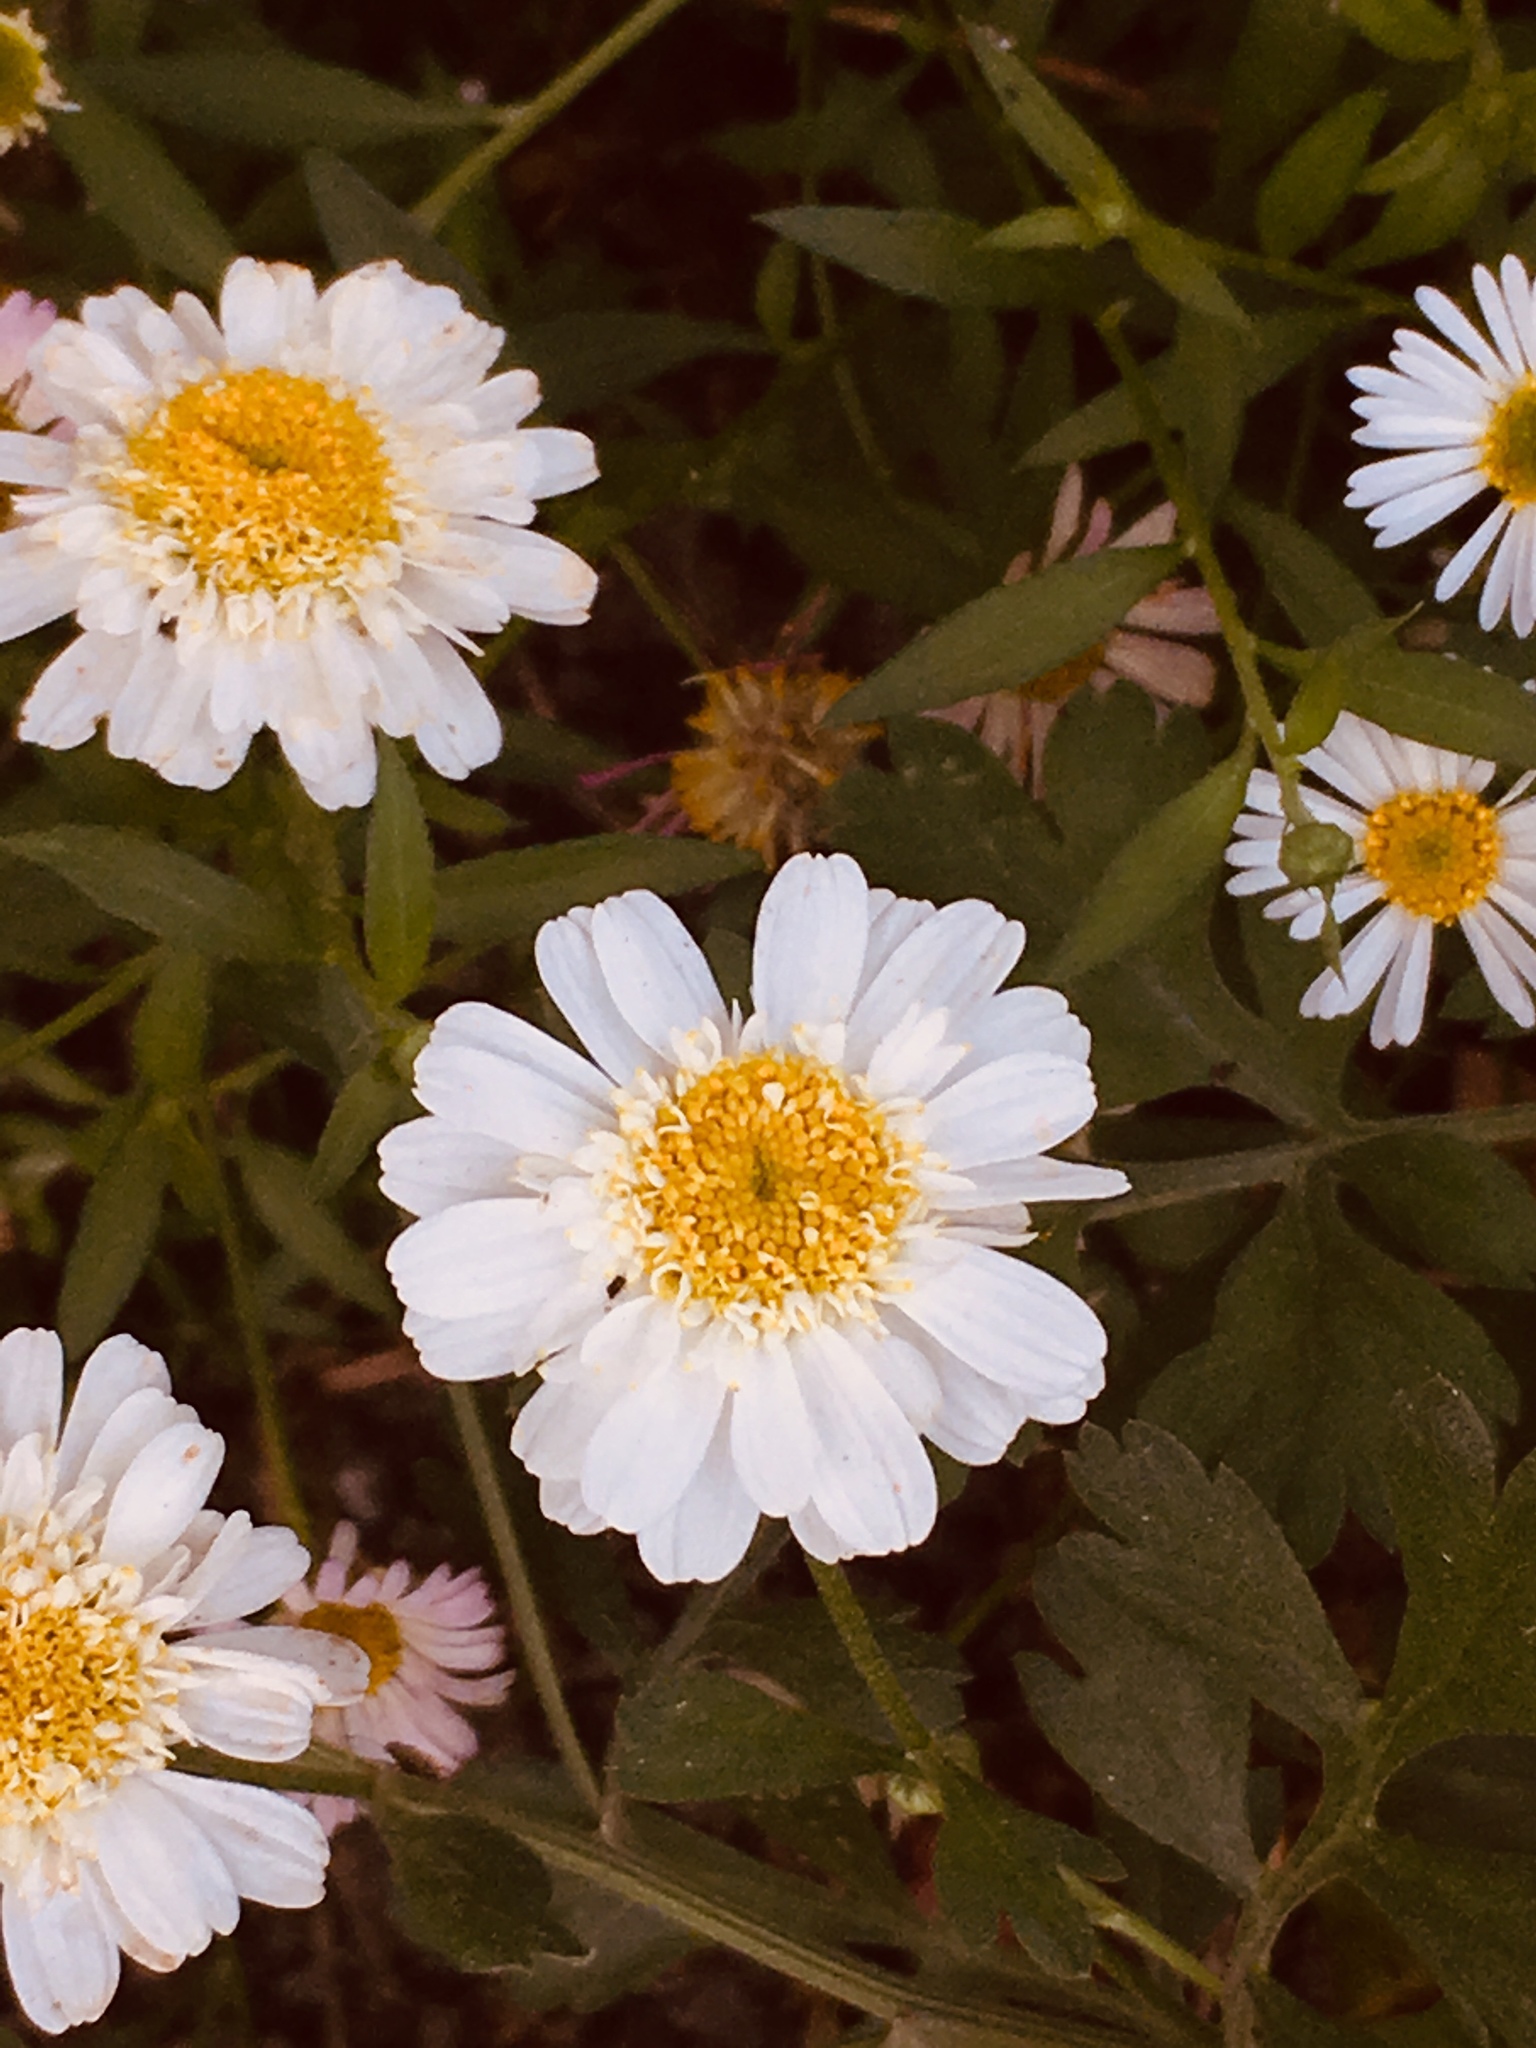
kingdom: Plantae
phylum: Tracheophyta
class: Magnoliopsida
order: Asterales
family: Asteraceae
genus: Tanacetum
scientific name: Tanacetum parthenium
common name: Feverfew
